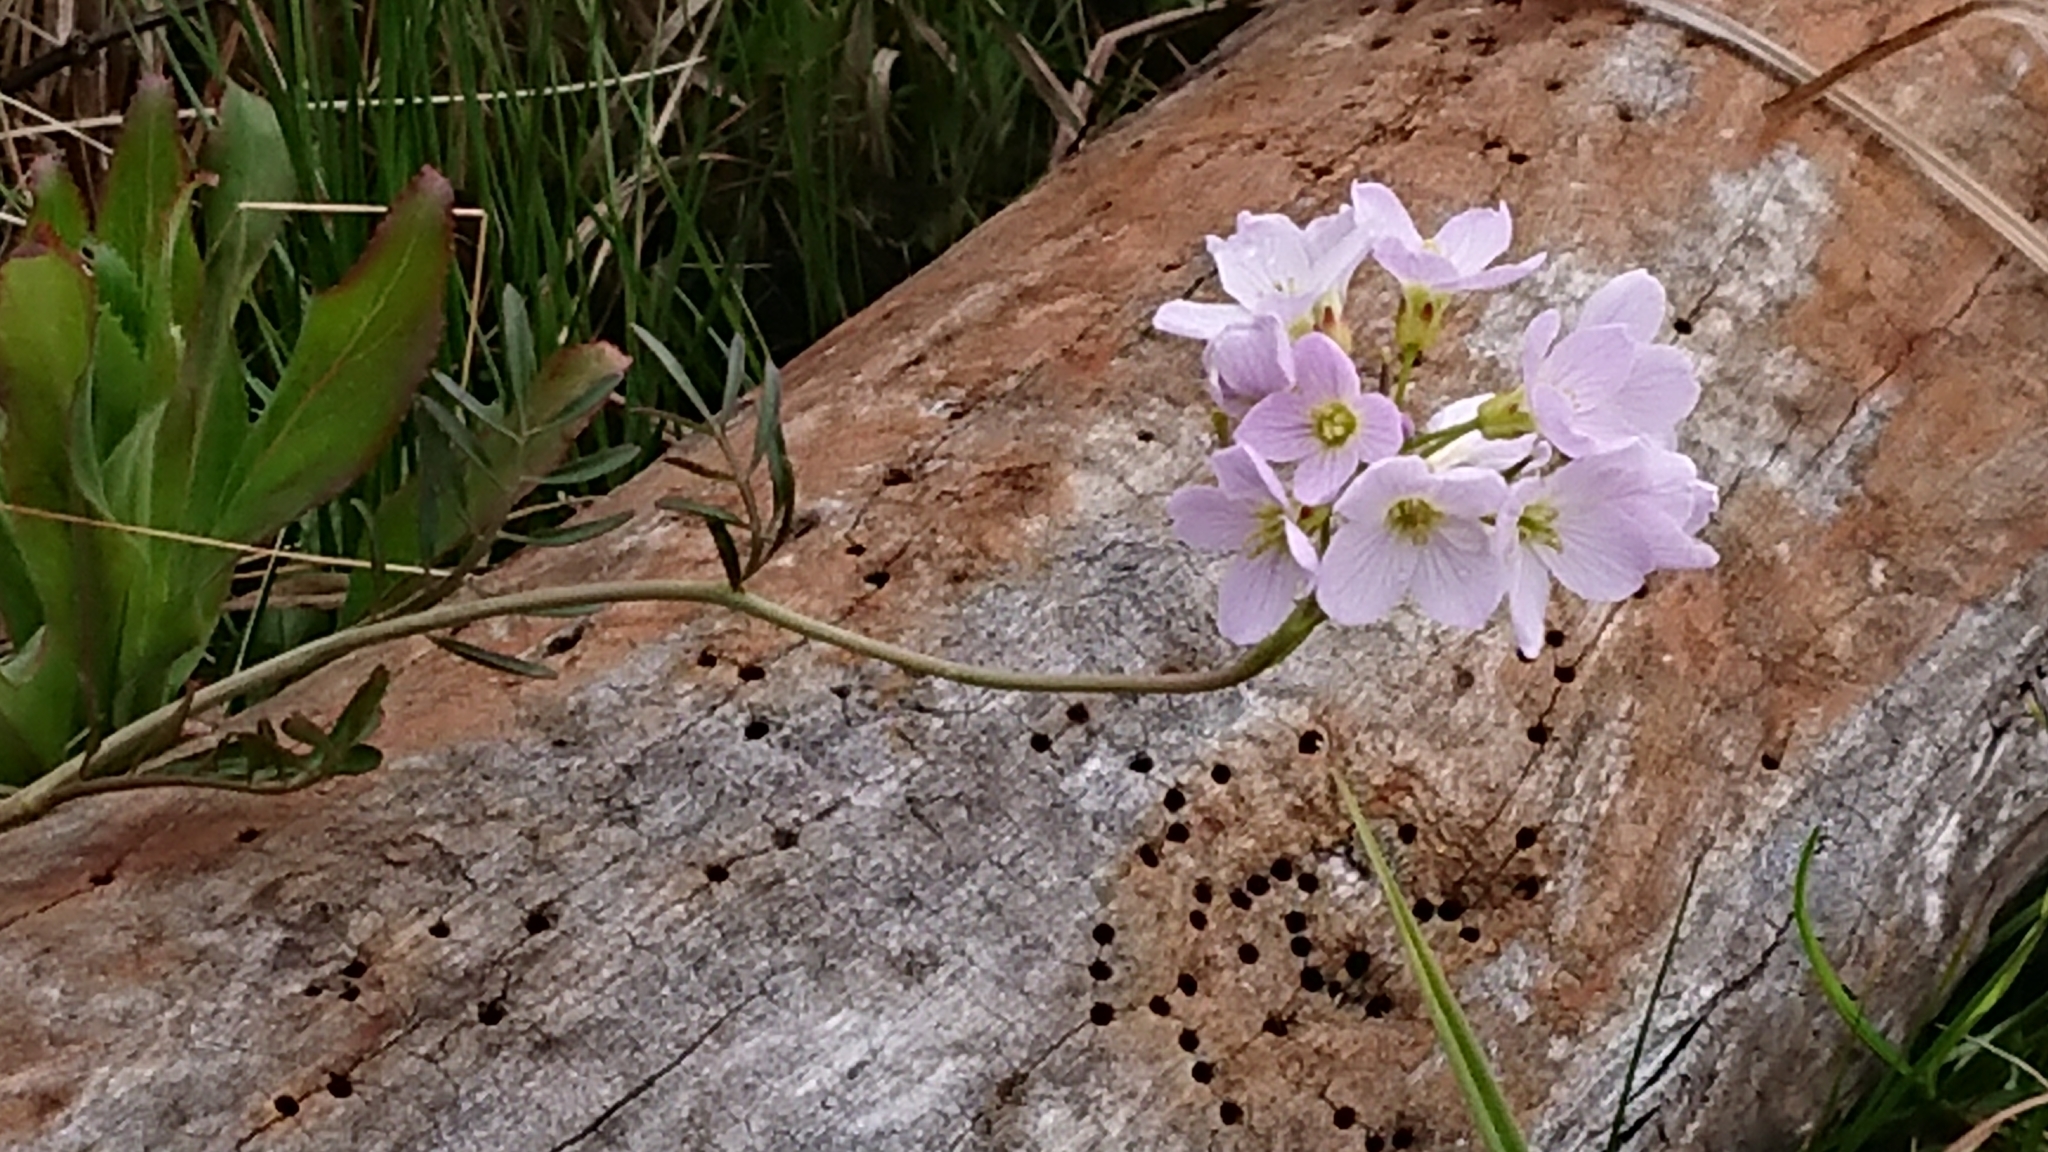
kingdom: Plantae
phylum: Tracheophyta
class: Magnoliopsida
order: Brassicales
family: Brassicaceae
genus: Cardamine
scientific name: Cardamine pratensis
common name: Cuckoo flower
